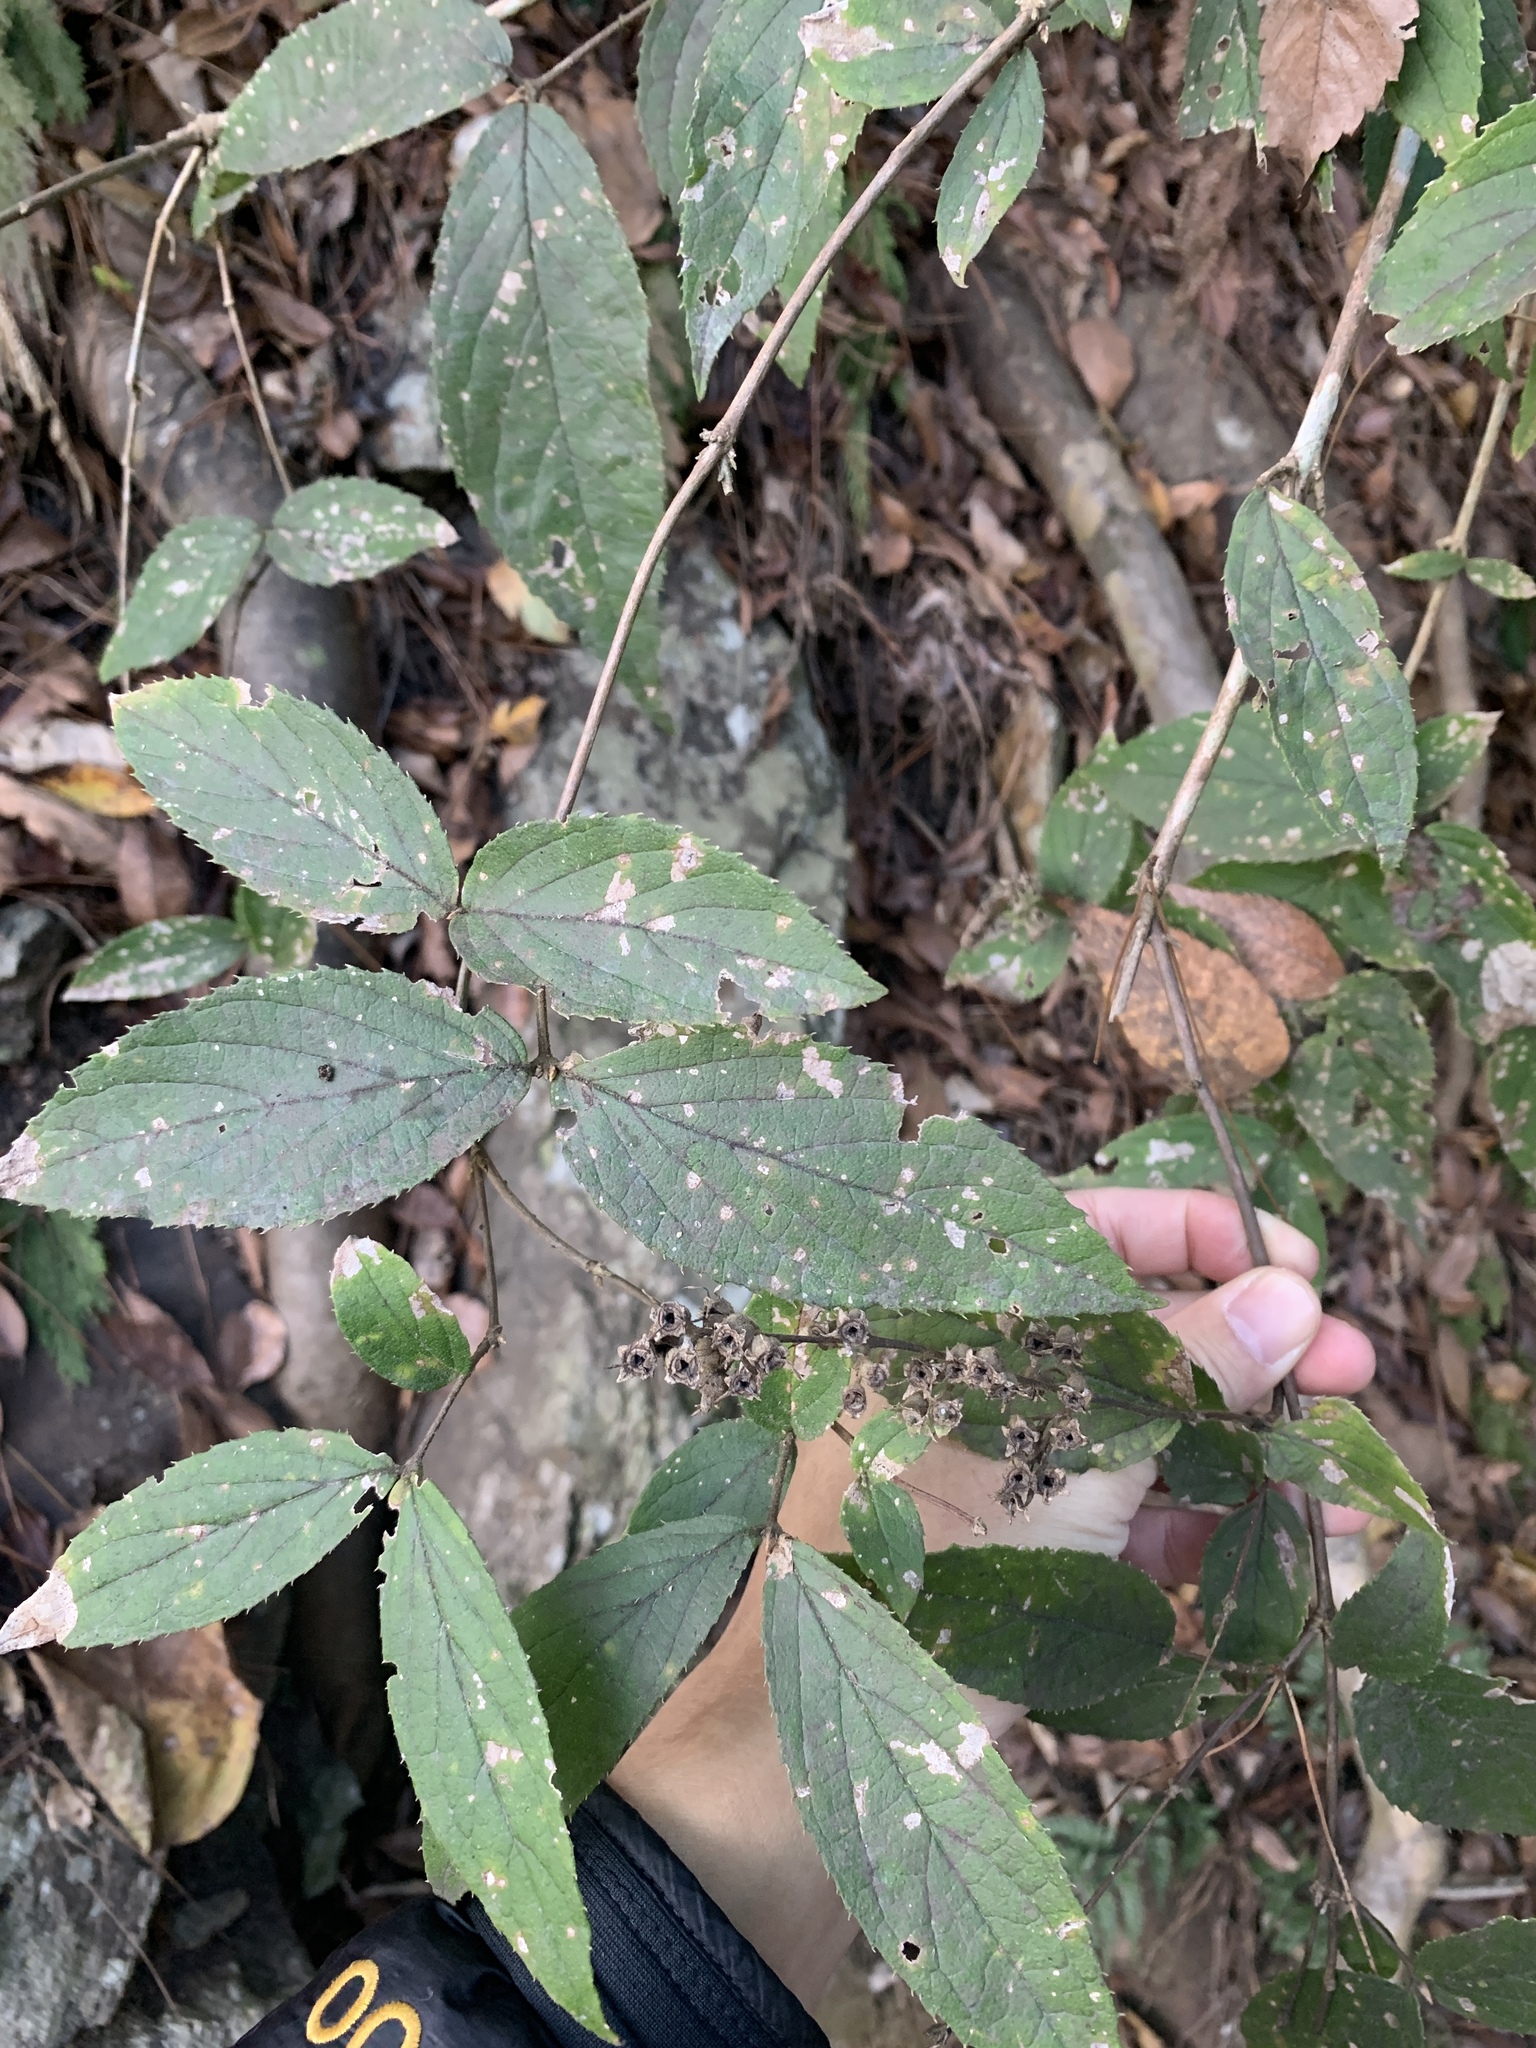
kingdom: Plantae
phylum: Tracheophyta
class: Magnoliopsida
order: Cornales
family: Hydrangeaceae
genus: Deutzia
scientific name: Deutzia taiwanensis
